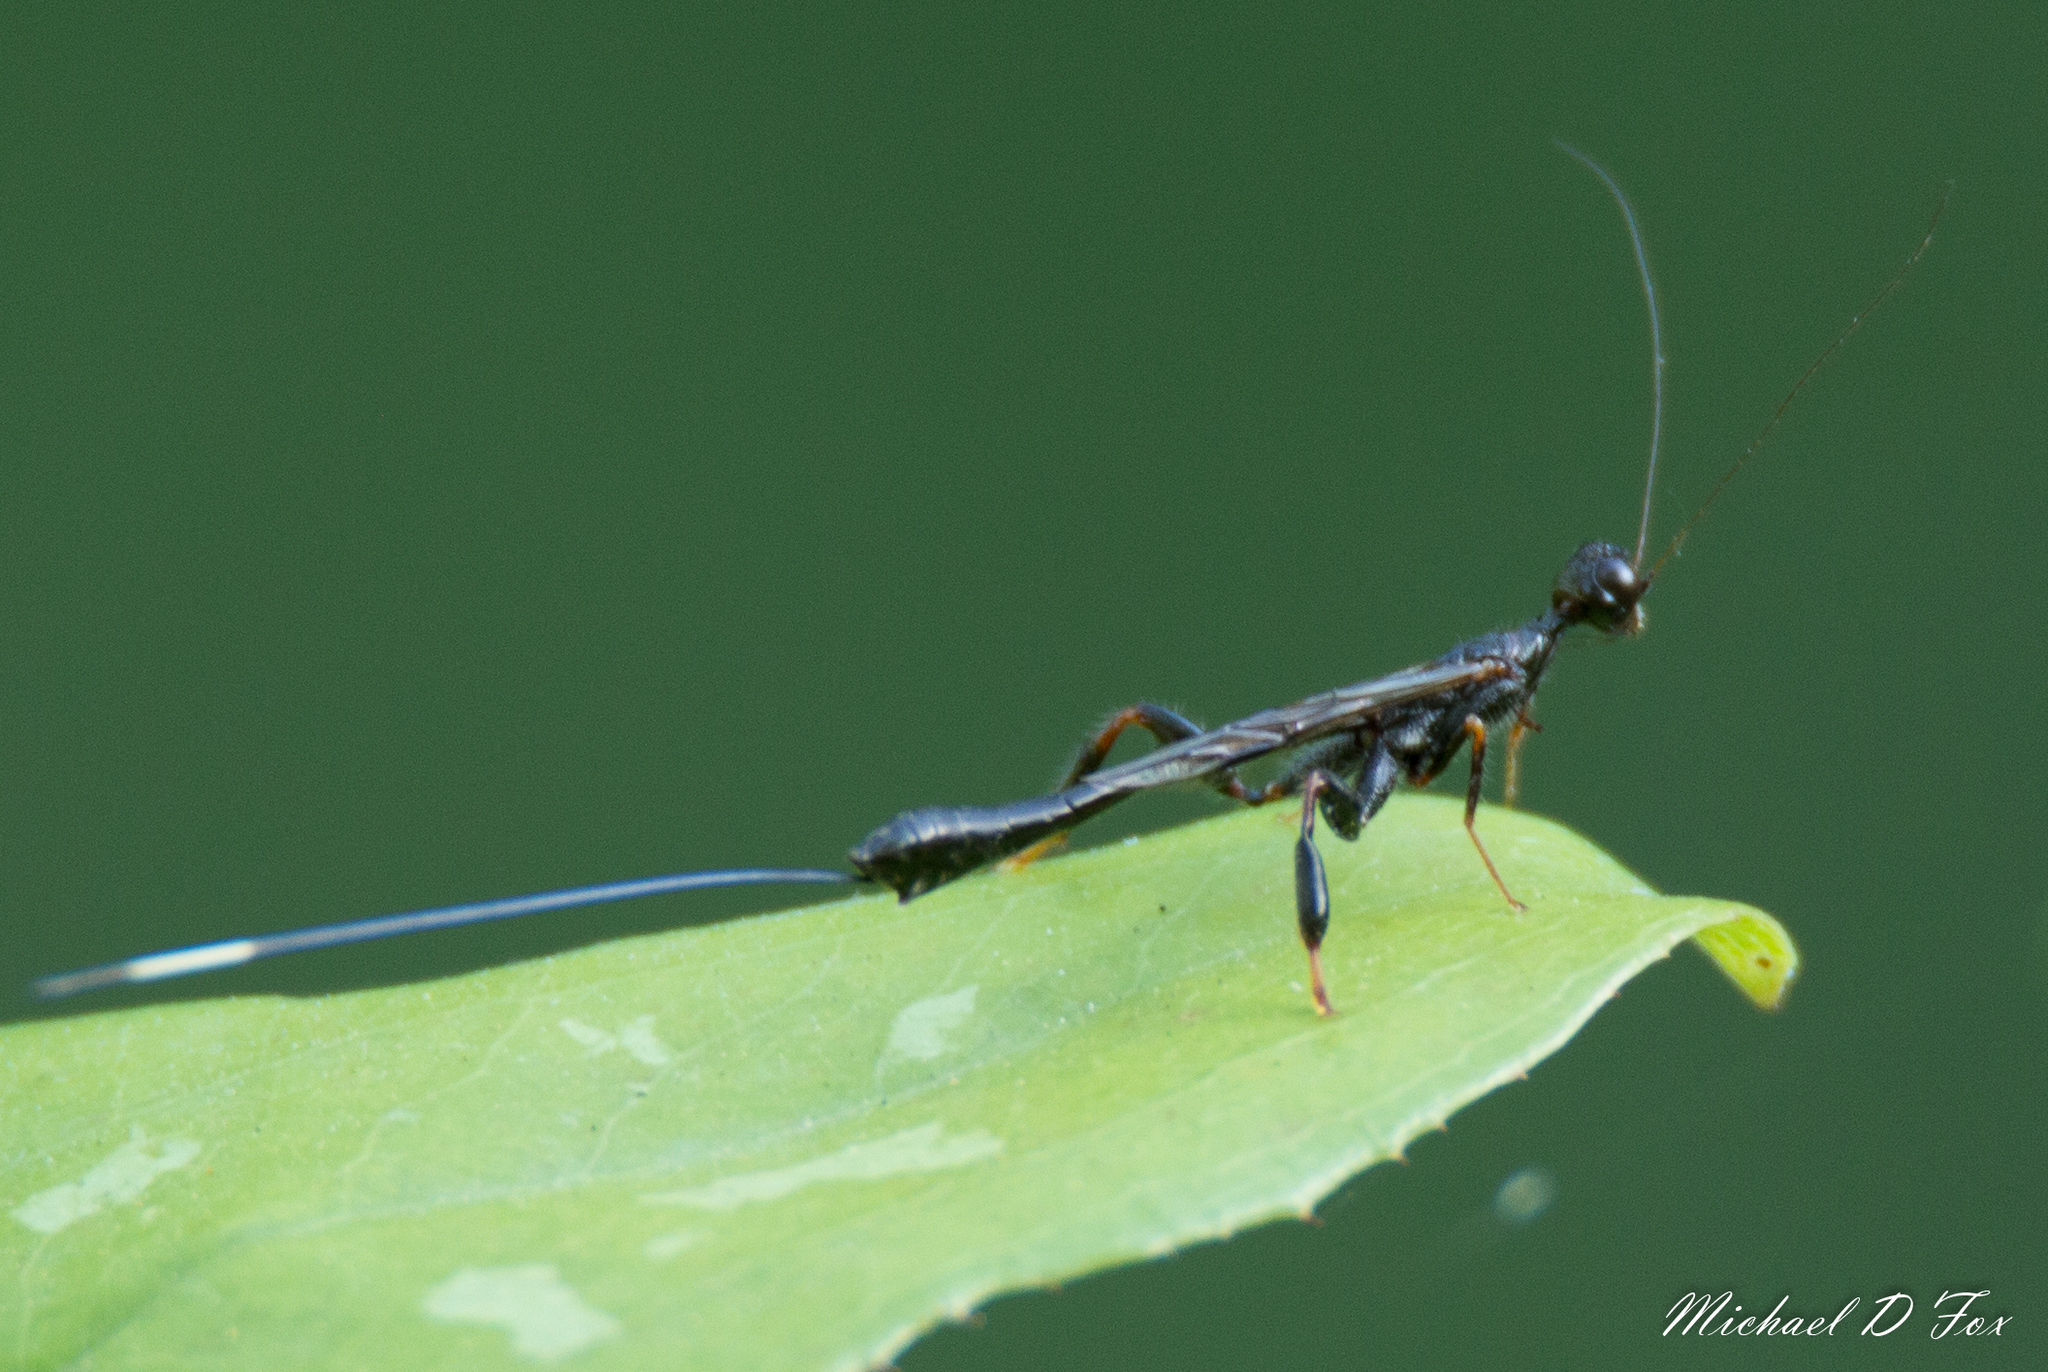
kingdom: Animalia
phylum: Arthropoda
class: Insecta
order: Hymenoptera
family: Stephanidae
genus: Megischus
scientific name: Megischus
